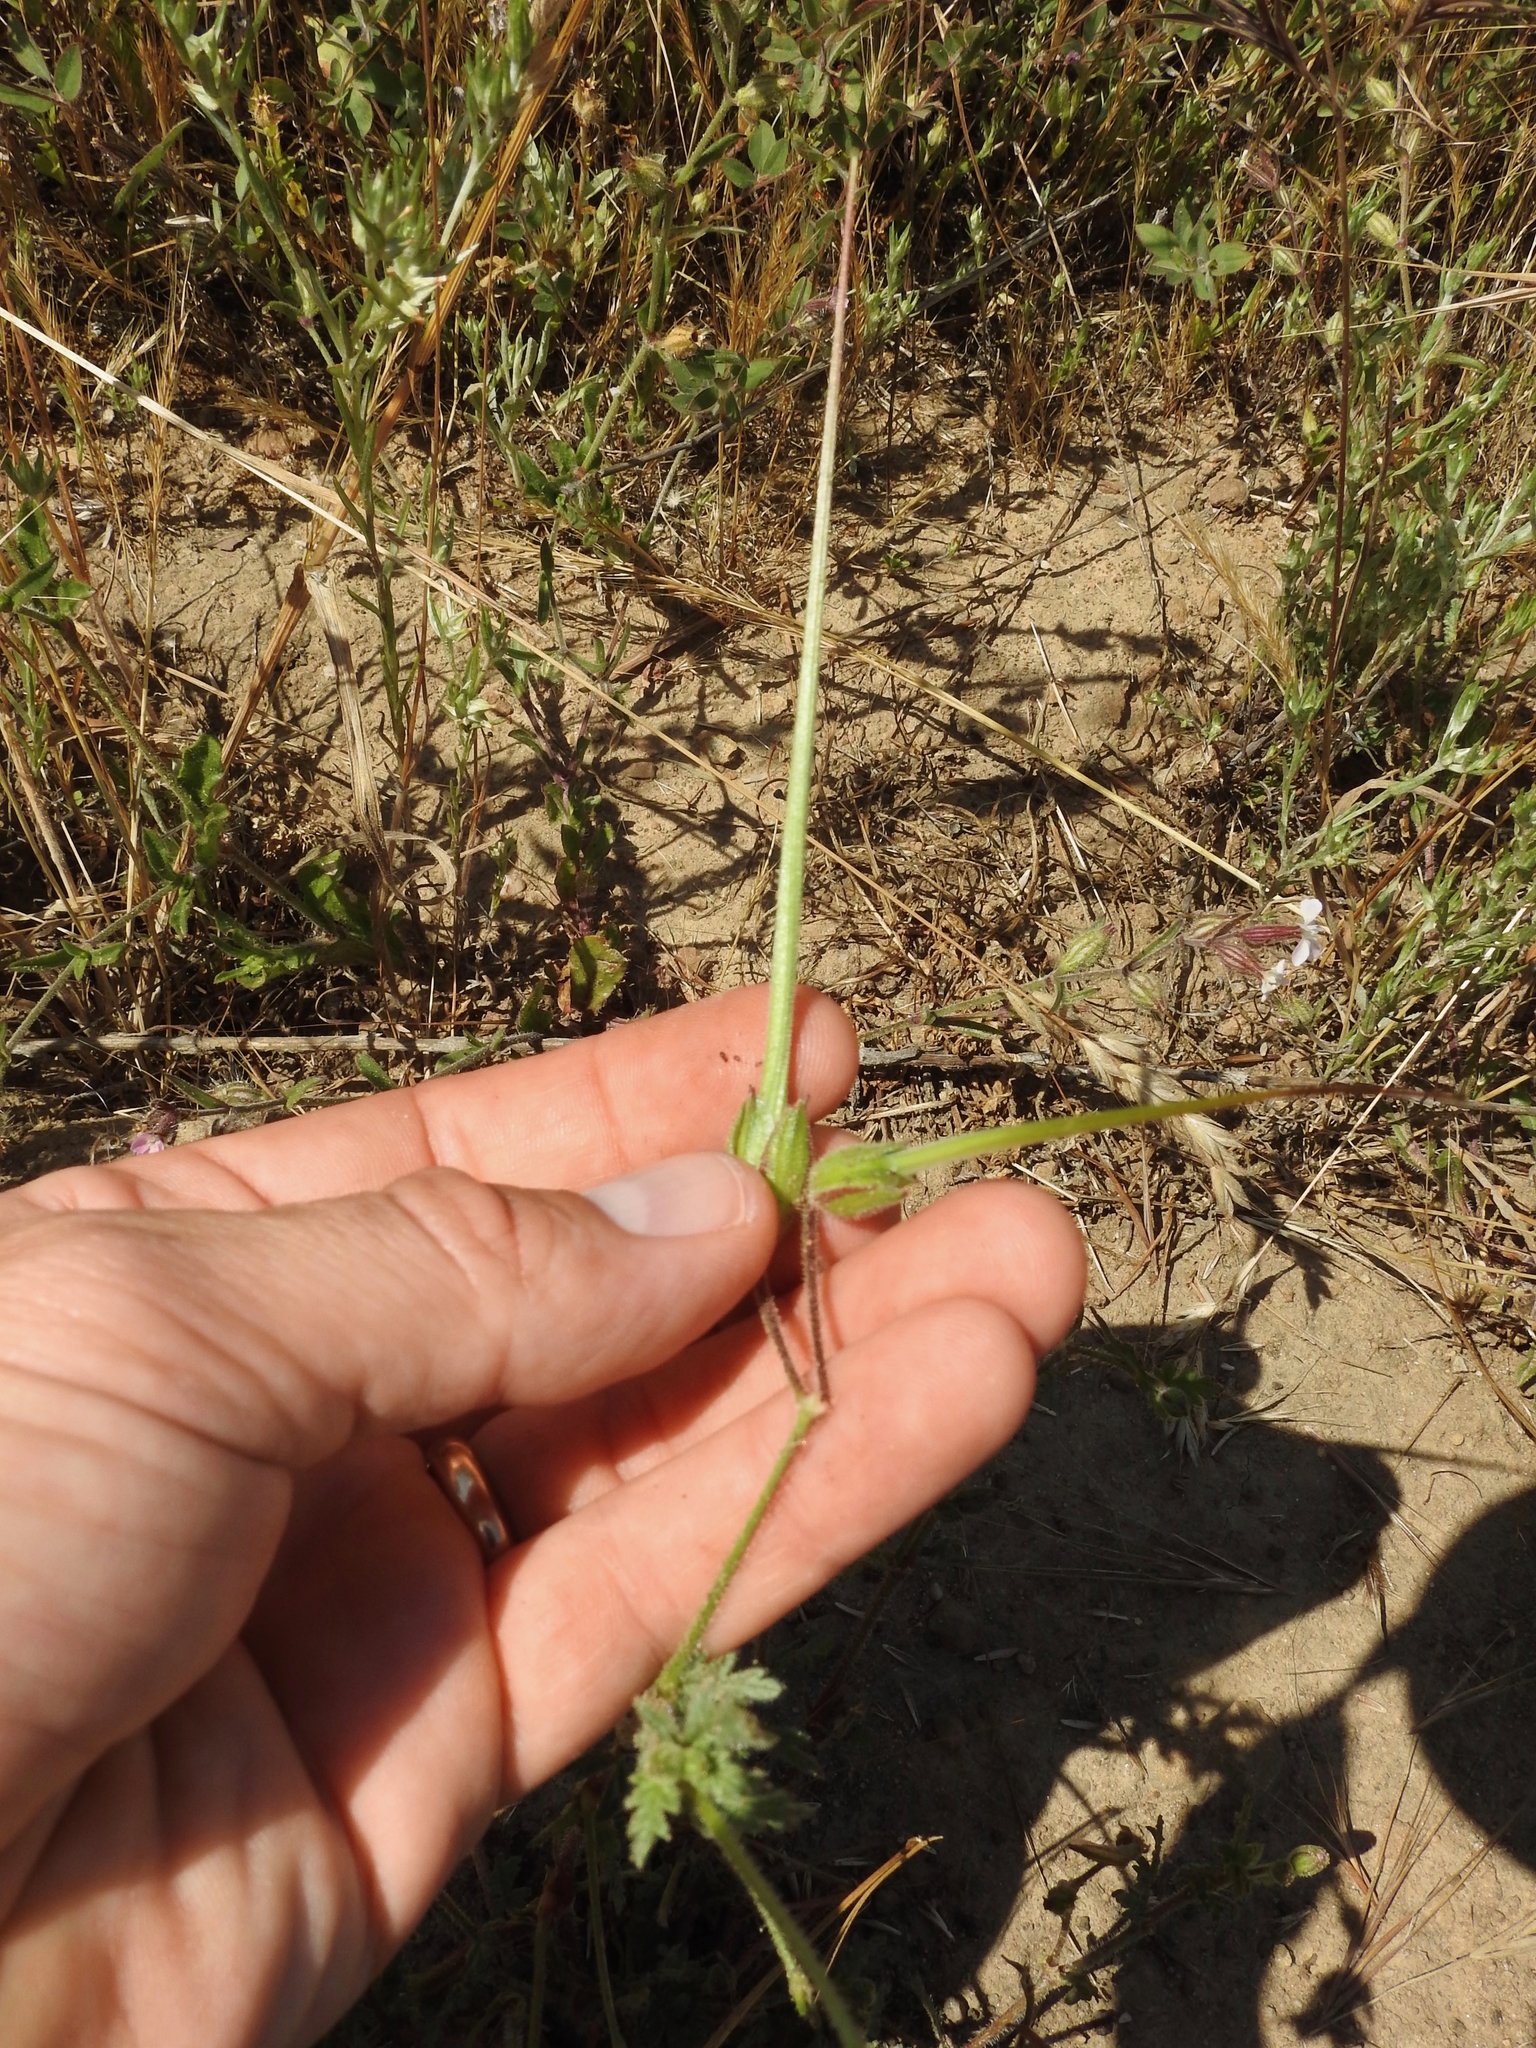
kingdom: Plantae
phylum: Tracheophyta
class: Magnoliopsida
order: Geraniales
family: Geraniaceae
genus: Erodium
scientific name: Erodium botrys
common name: Mediterranean stork's-bill
